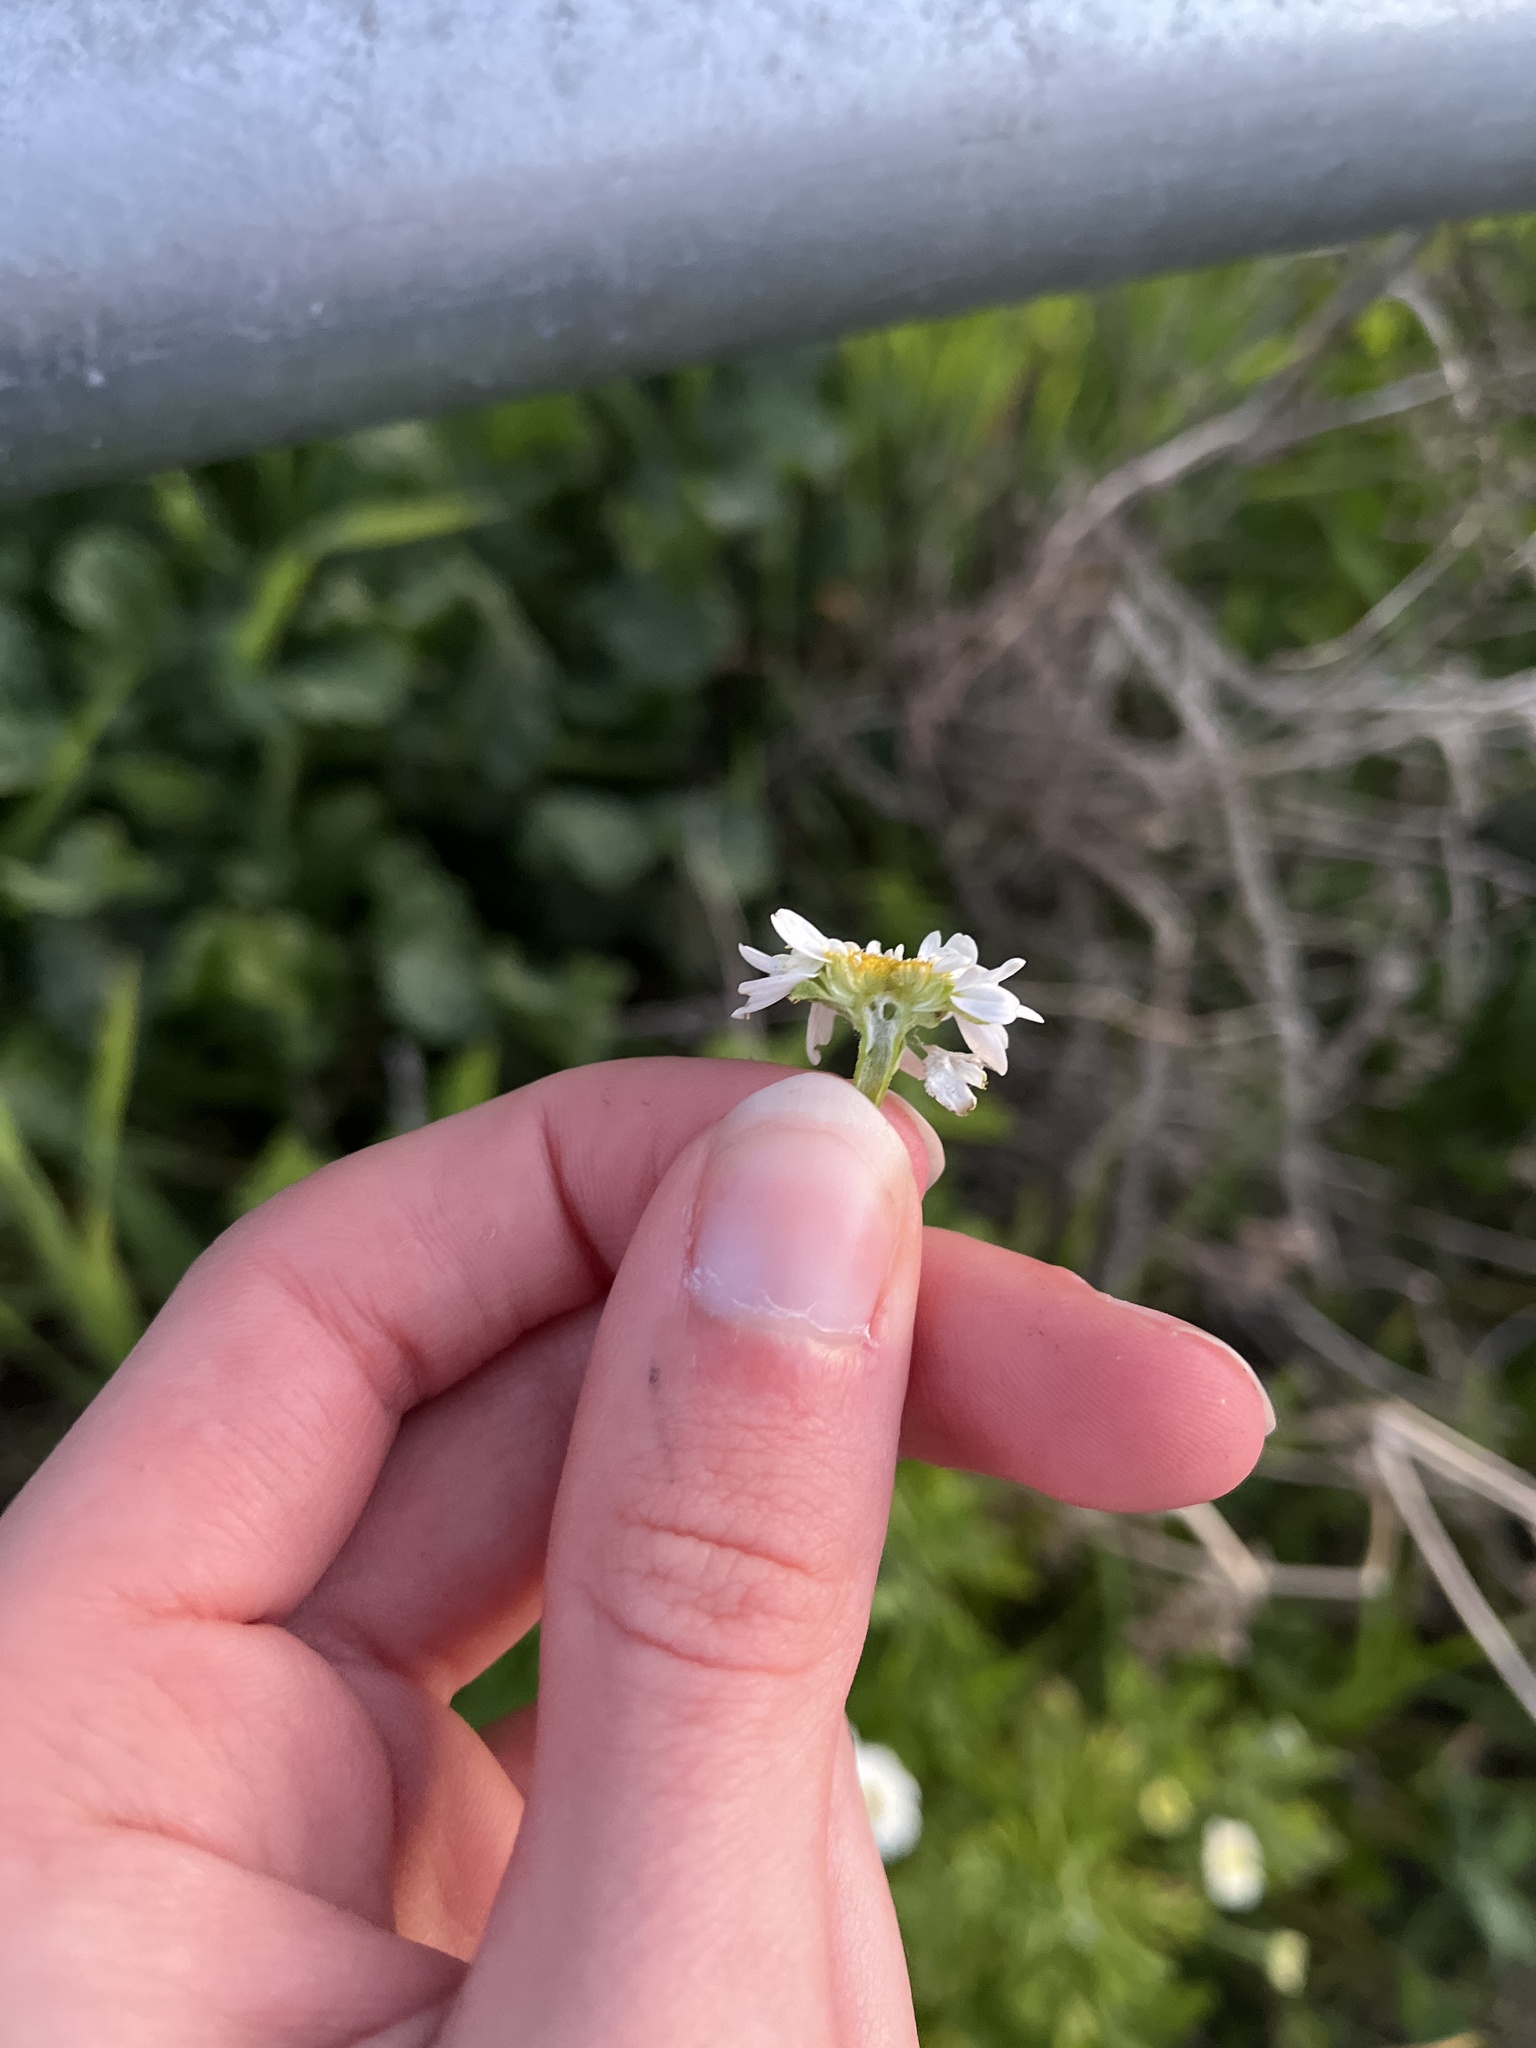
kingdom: Plantae
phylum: Tracheophyta
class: Magnoliopsida
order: Asterales
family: Asteraceae
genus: Tanacetum
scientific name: Tanacetum parthenium
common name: Feverfew
